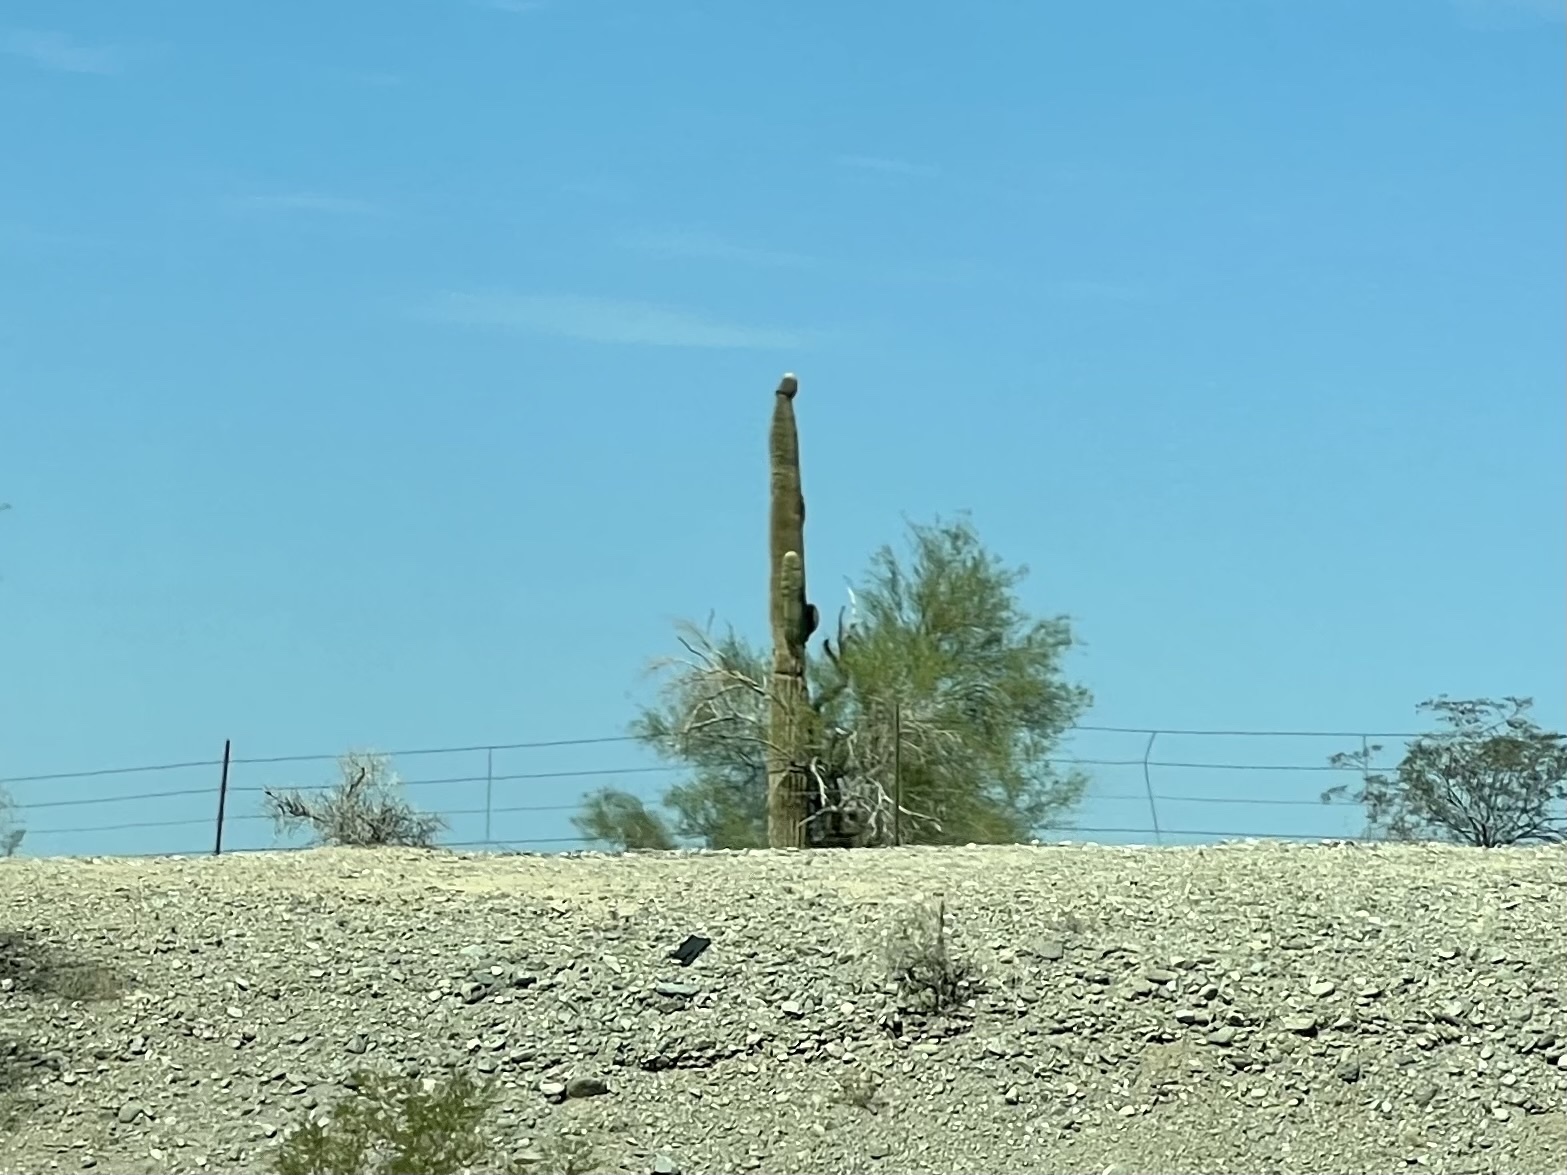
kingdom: Plantae
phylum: Tracheophyta
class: Magnoliopsida
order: Caryophyllales
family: Cactaceae
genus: Carnegiea
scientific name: Carnegiea gigantea
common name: Saguaro
